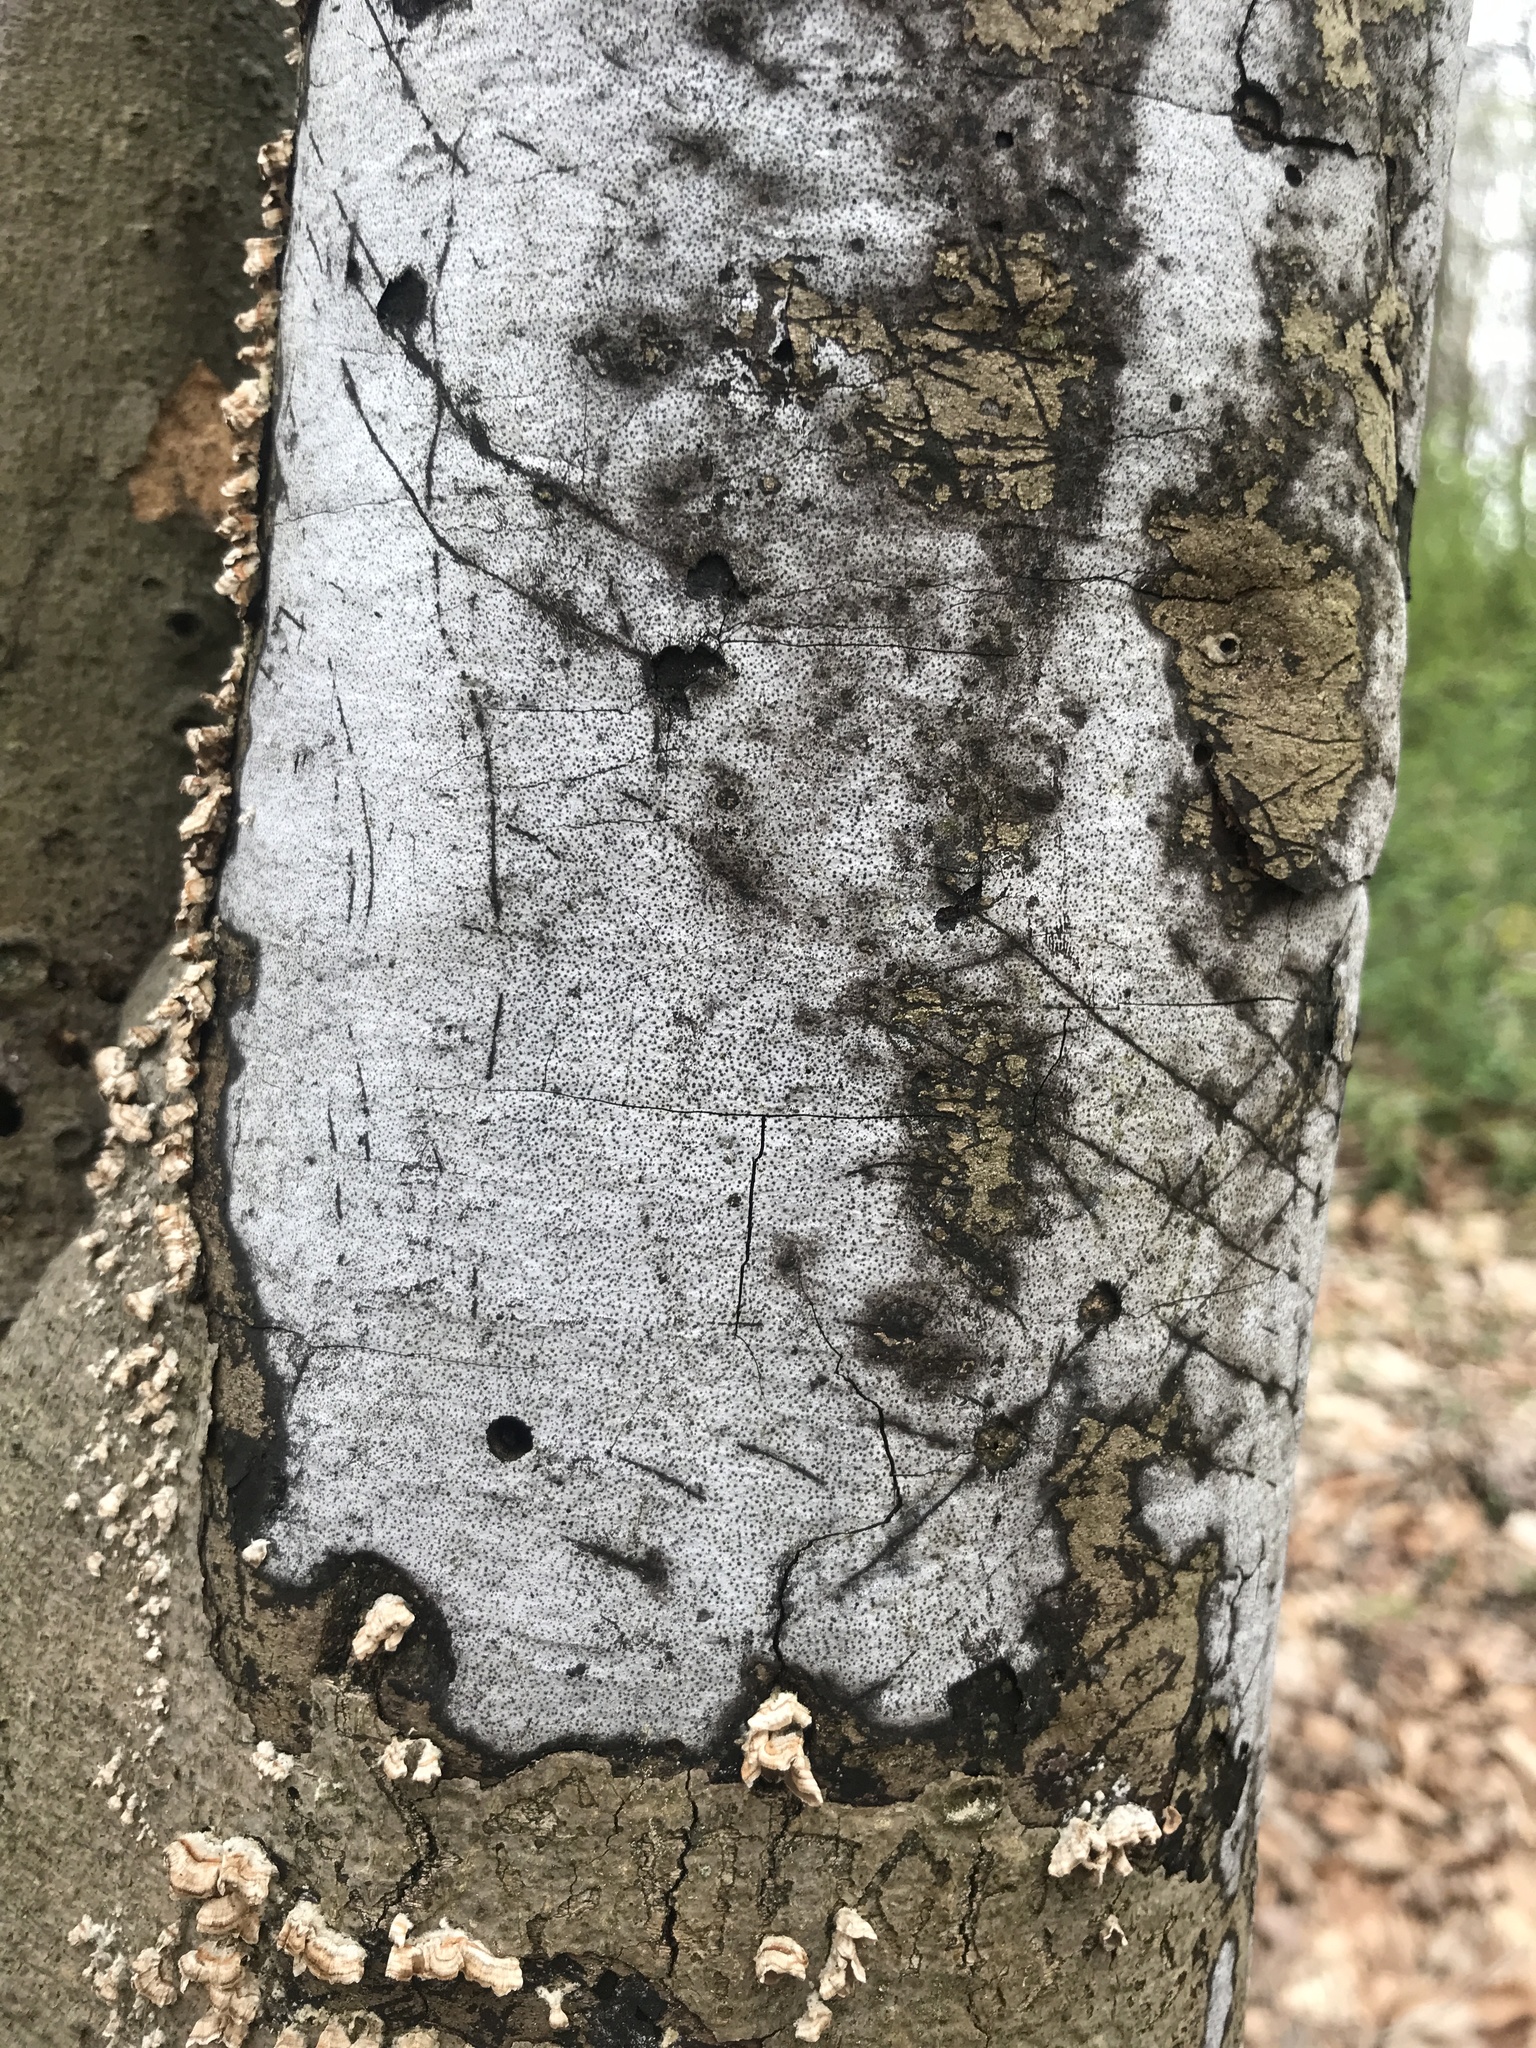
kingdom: Fungi
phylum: Ascomycota
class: Sordariomycetes
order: Xylariales
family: Graphostromataceae
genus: Biscogniauxia
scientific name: Biscogniauxia atropunctata
